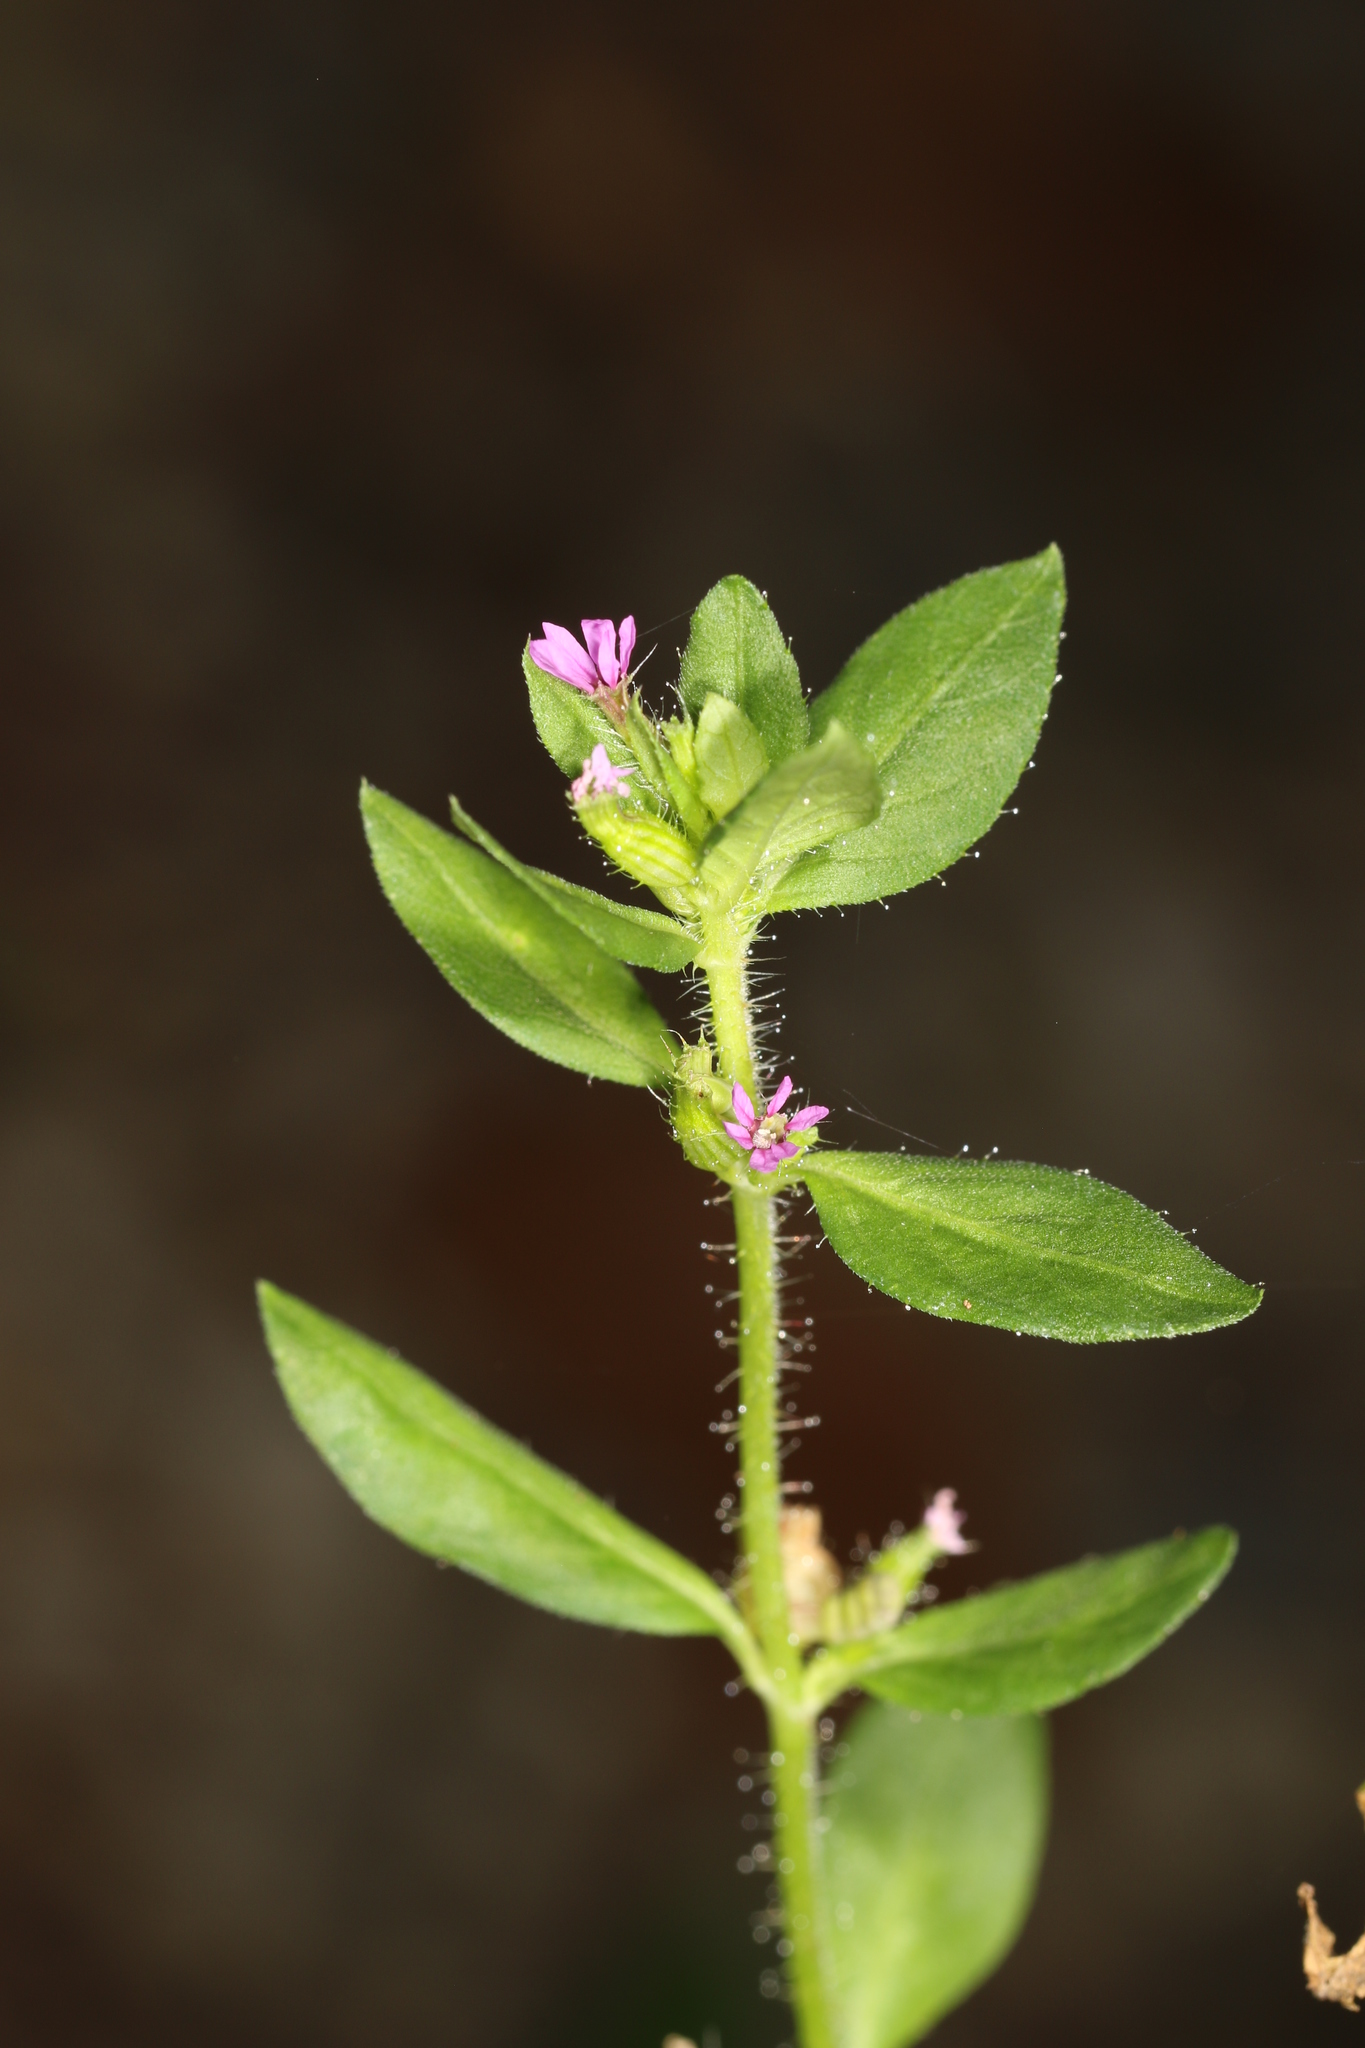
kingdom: Plantae
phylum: Tracheophyta
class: Magnoliopsida
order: Myrtales
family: Lythraceae
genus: Cuphea
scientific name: Cuphea carthagenensis
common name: Colombian waxweed
